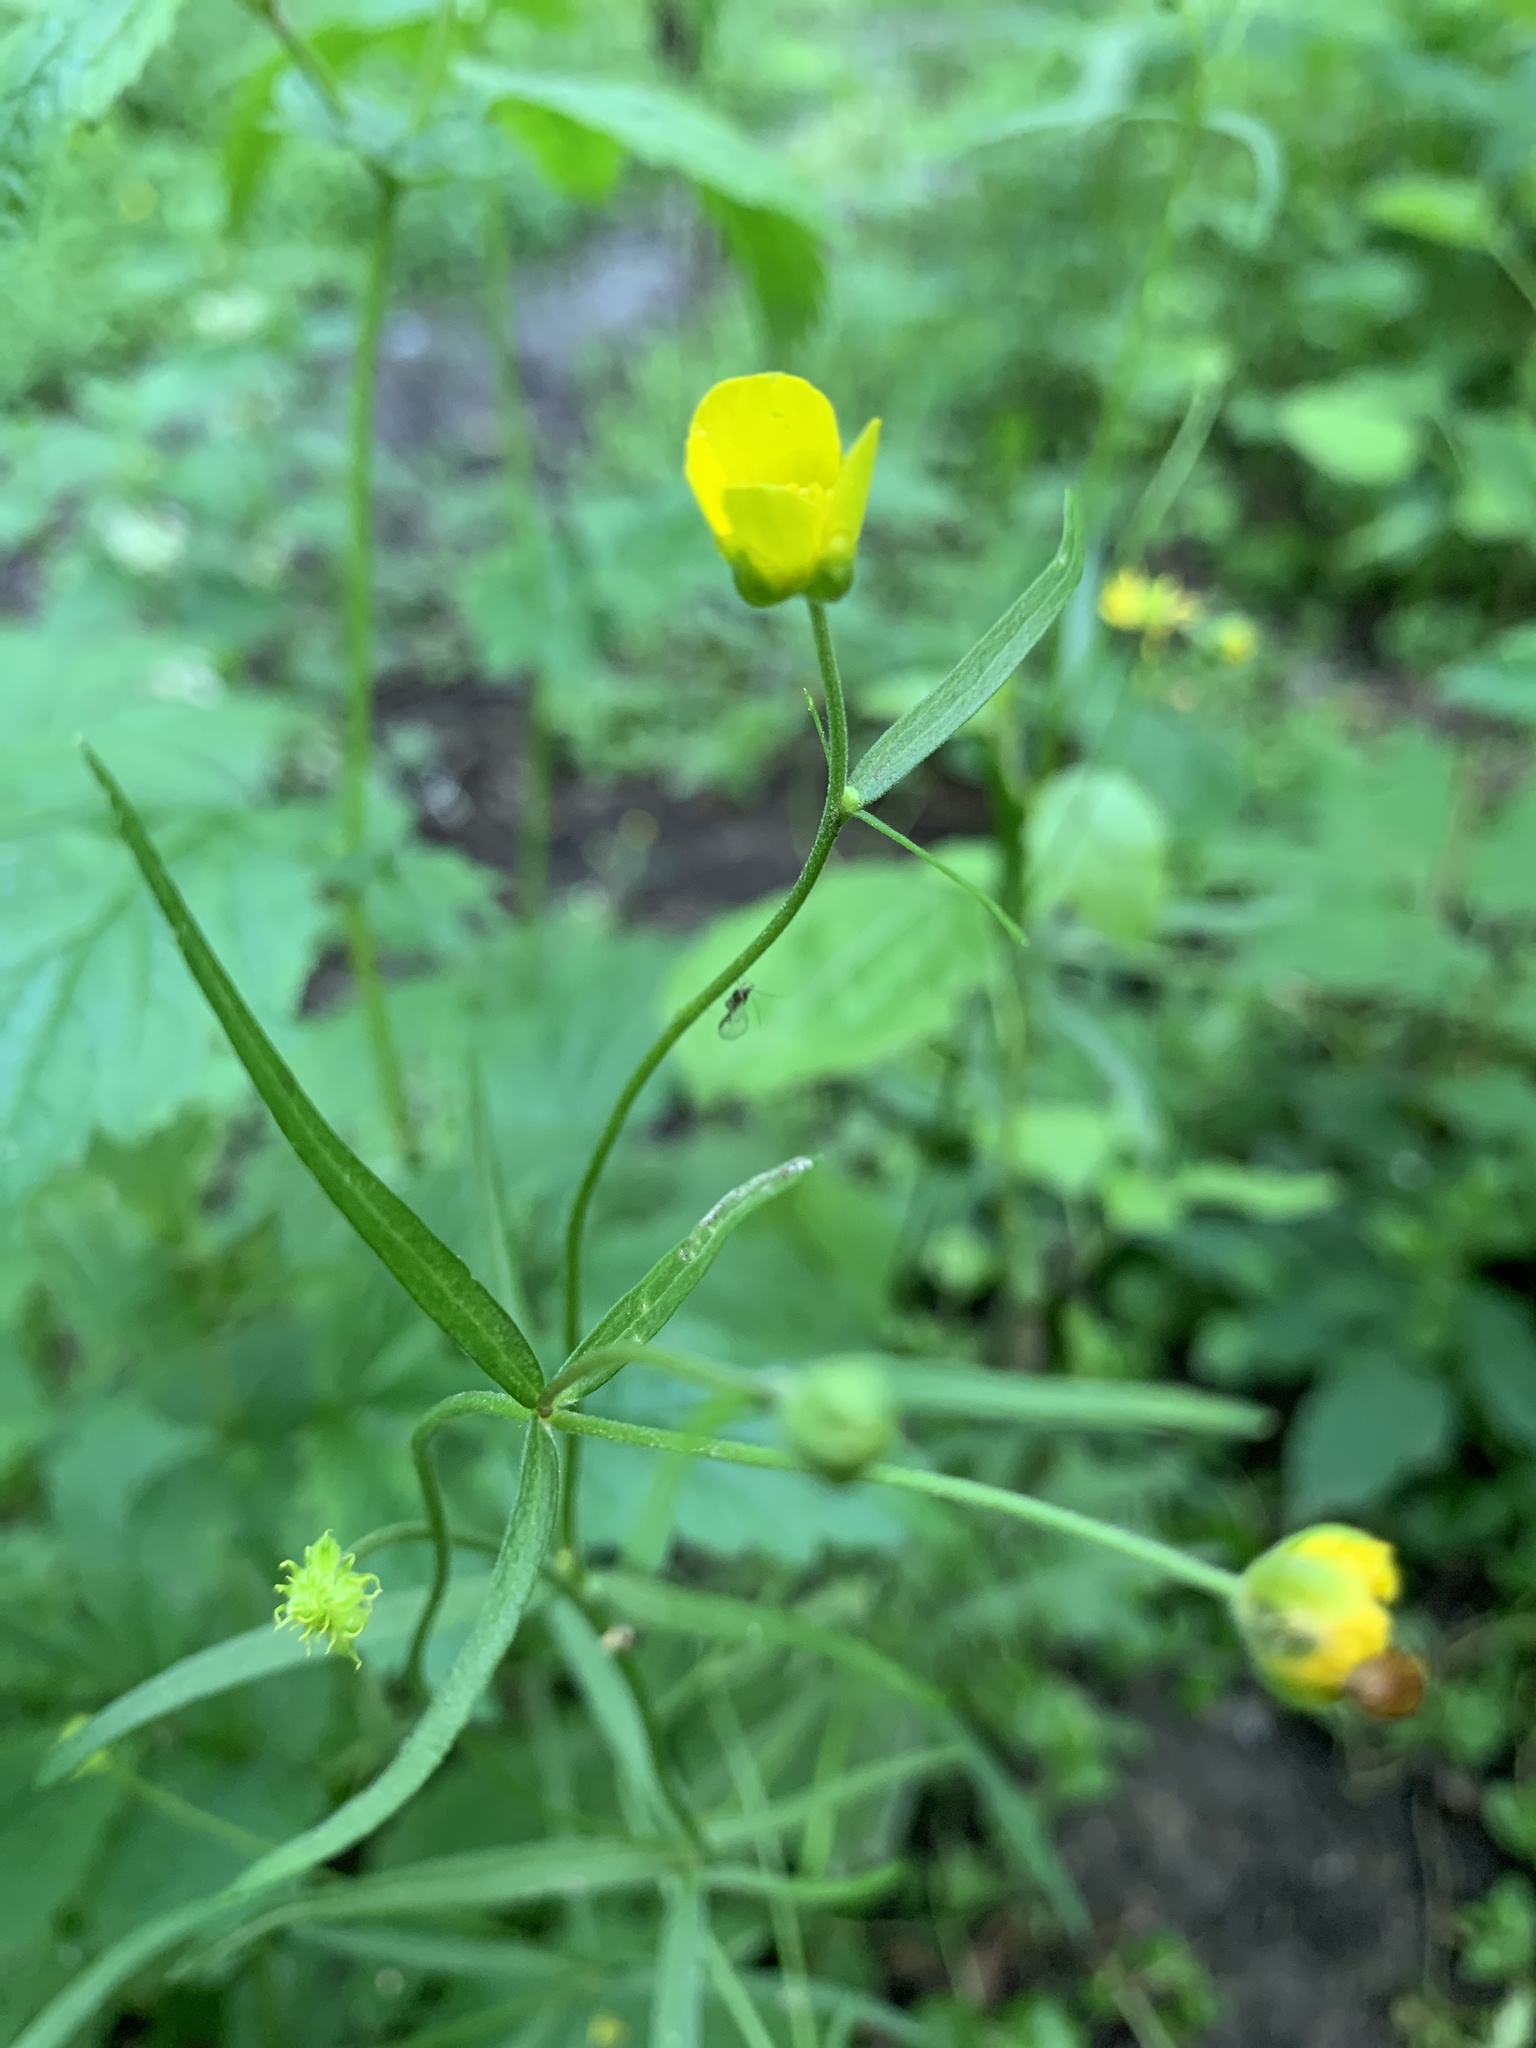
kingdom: Plantae
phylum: Tracheophyta
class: Magnoliopsida
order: Ranunculales
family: Ranunculaceae
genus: Ranunculus
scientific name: Ranunculus auricomus
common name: Goldilocks buttercup
